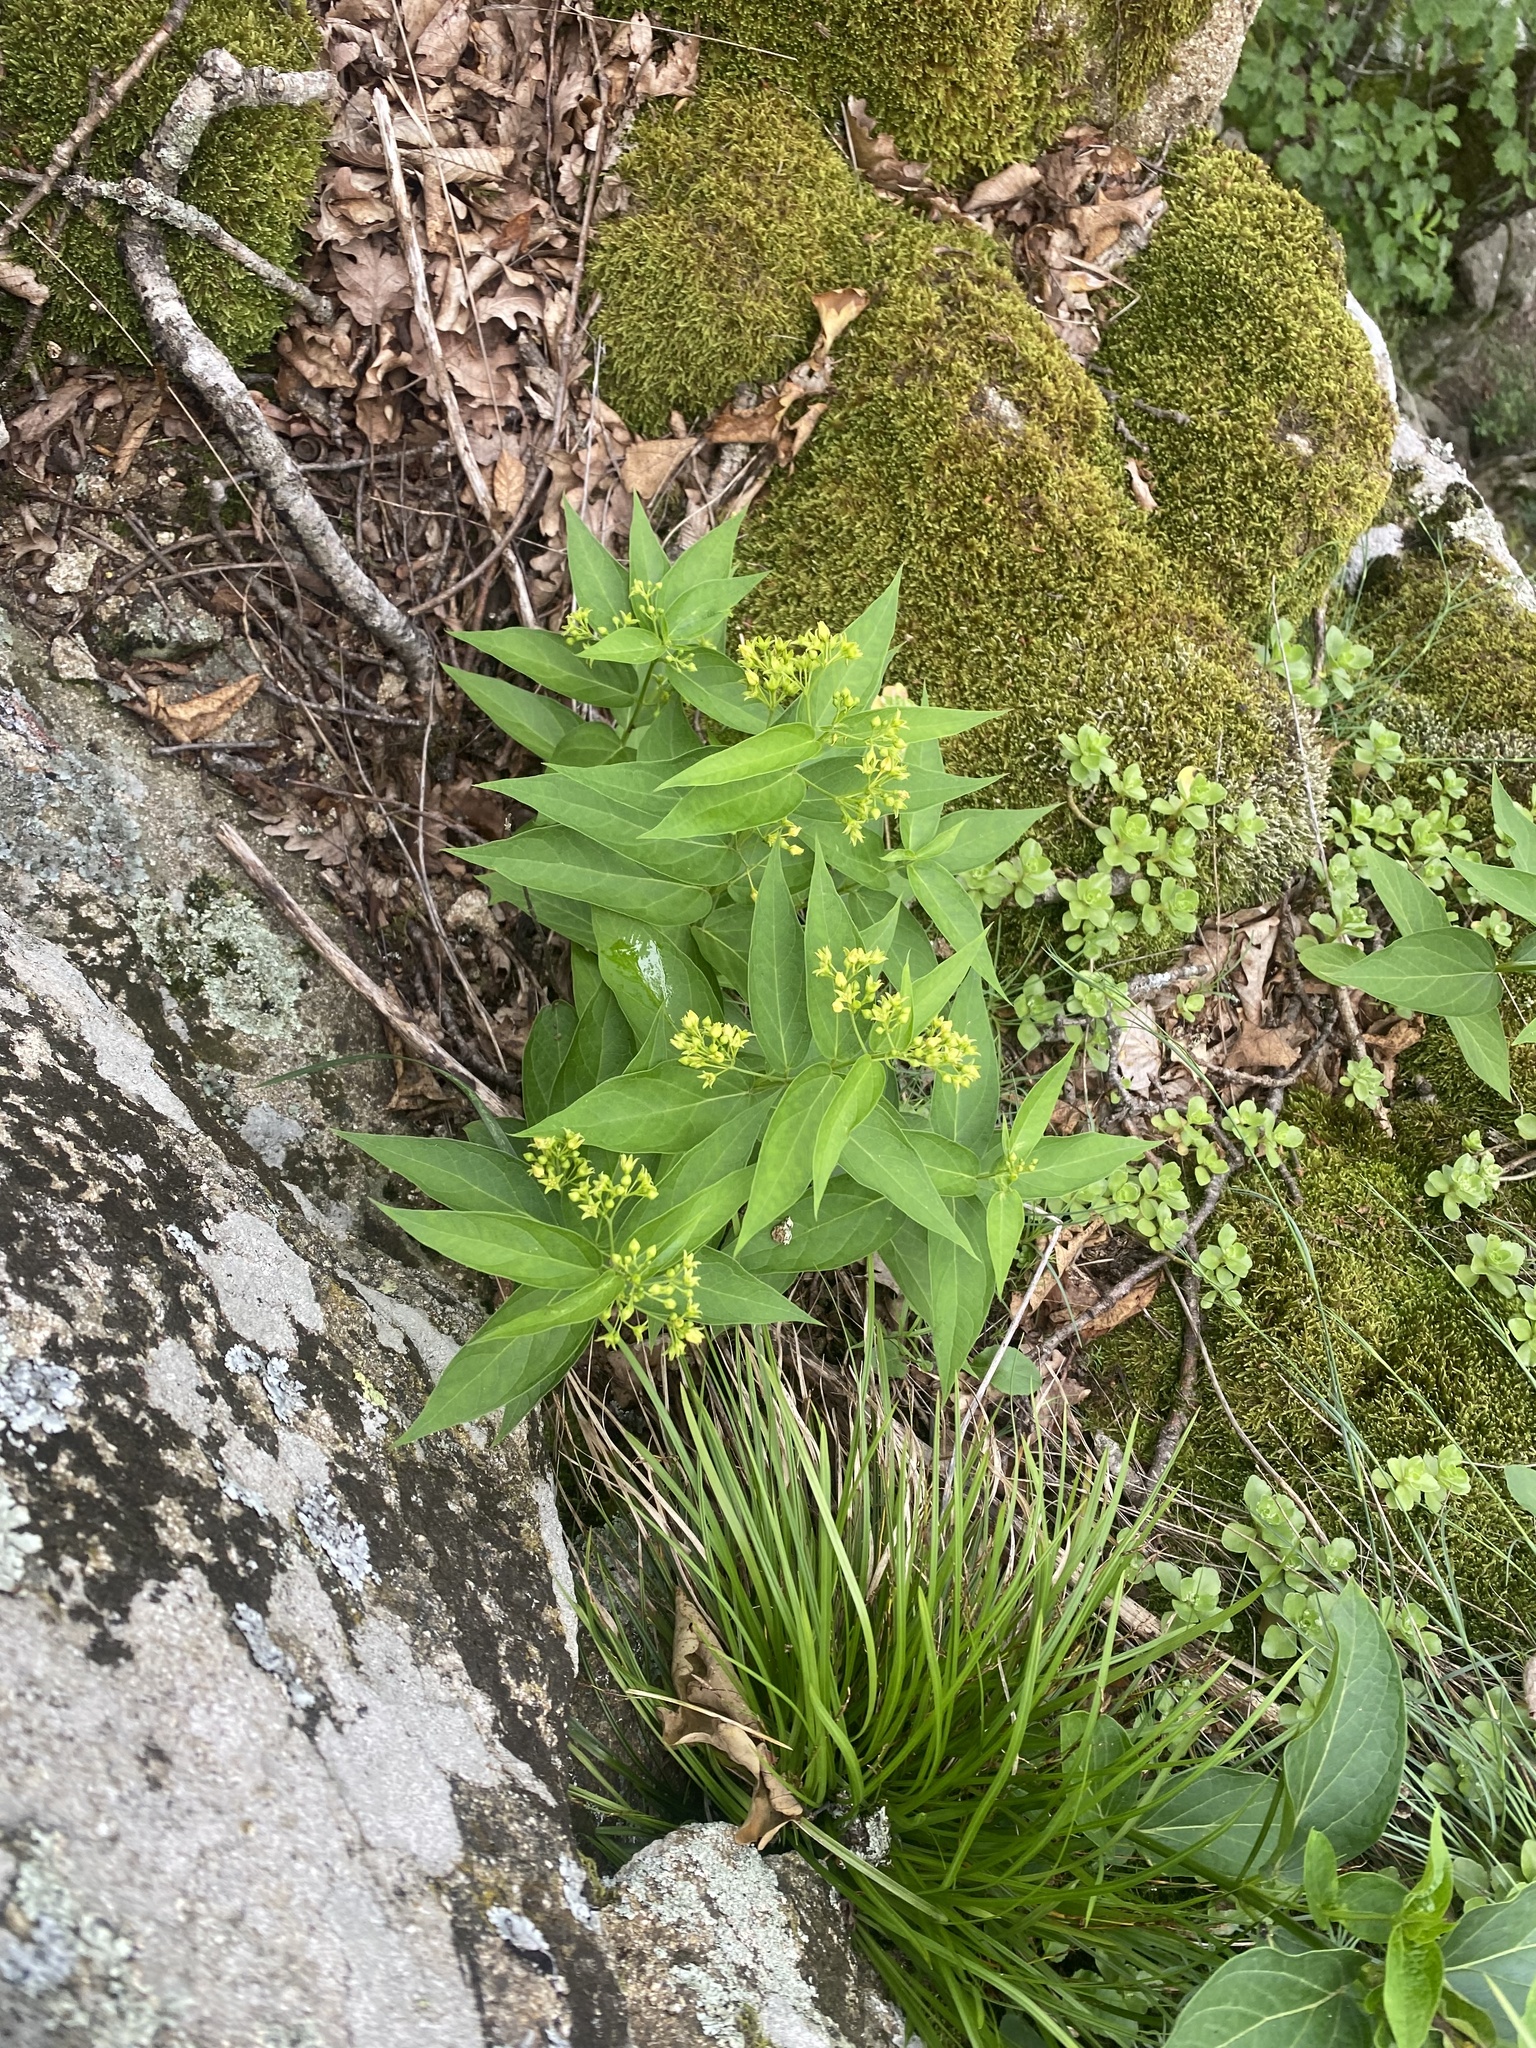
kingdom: Plantae
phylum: Tracheophyta
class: Magnoliopsida
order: Gentianales
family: Apocynaceae
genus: Vincetoxicum
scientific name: Vincetoxicum hirundinaria
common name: White swallowwort
